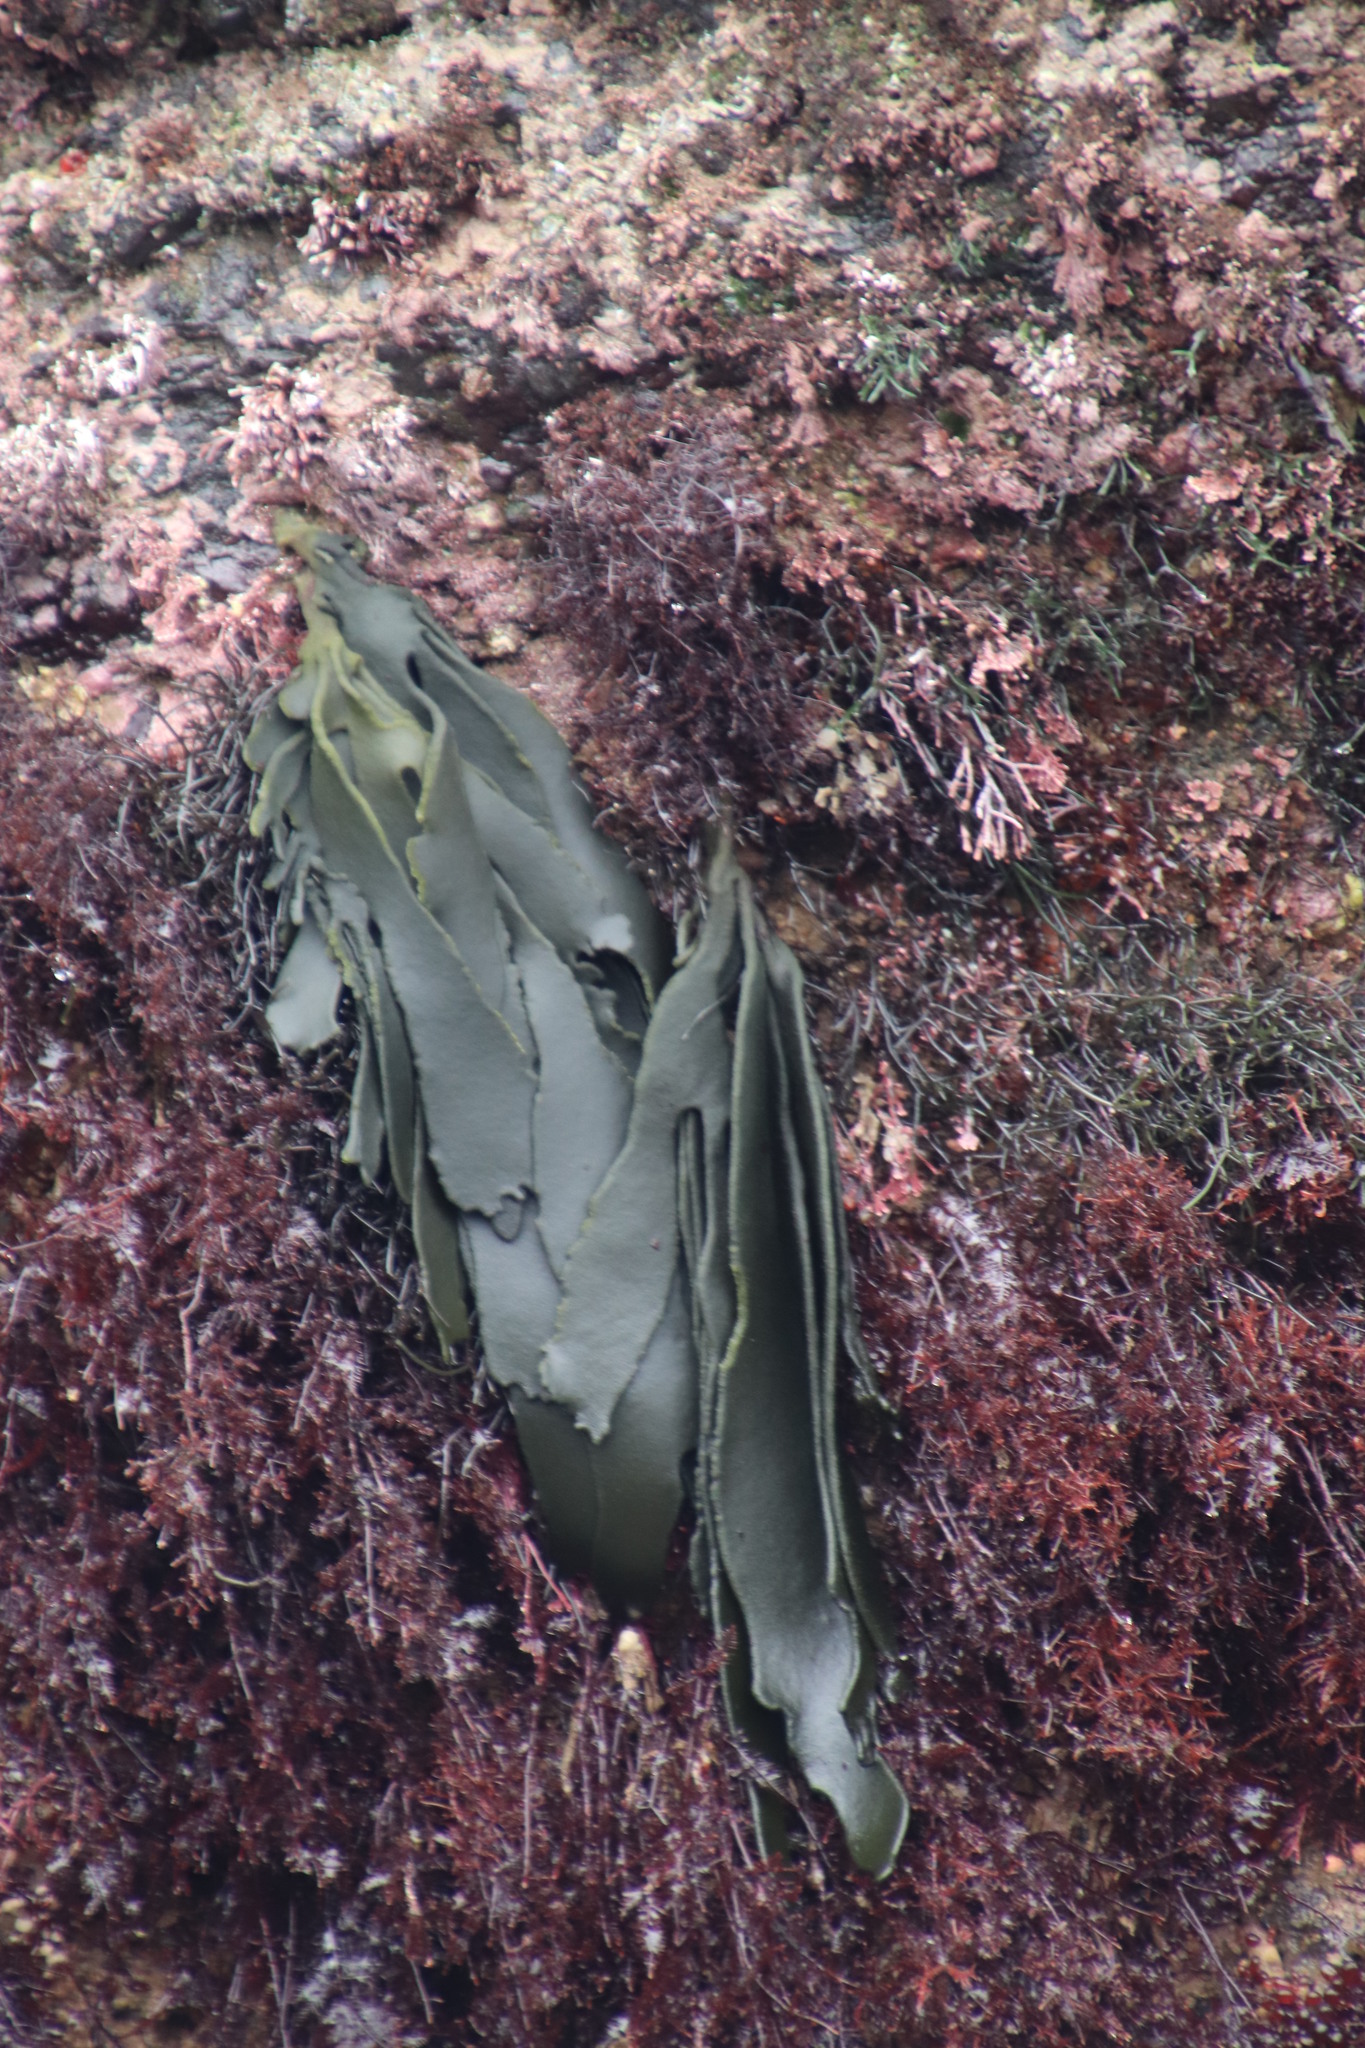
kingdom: Plantae
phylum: Chlorophyta
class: Ulvophyceae
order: Bryopsidales
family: Codiaceae
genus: Codium
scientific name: Codium
